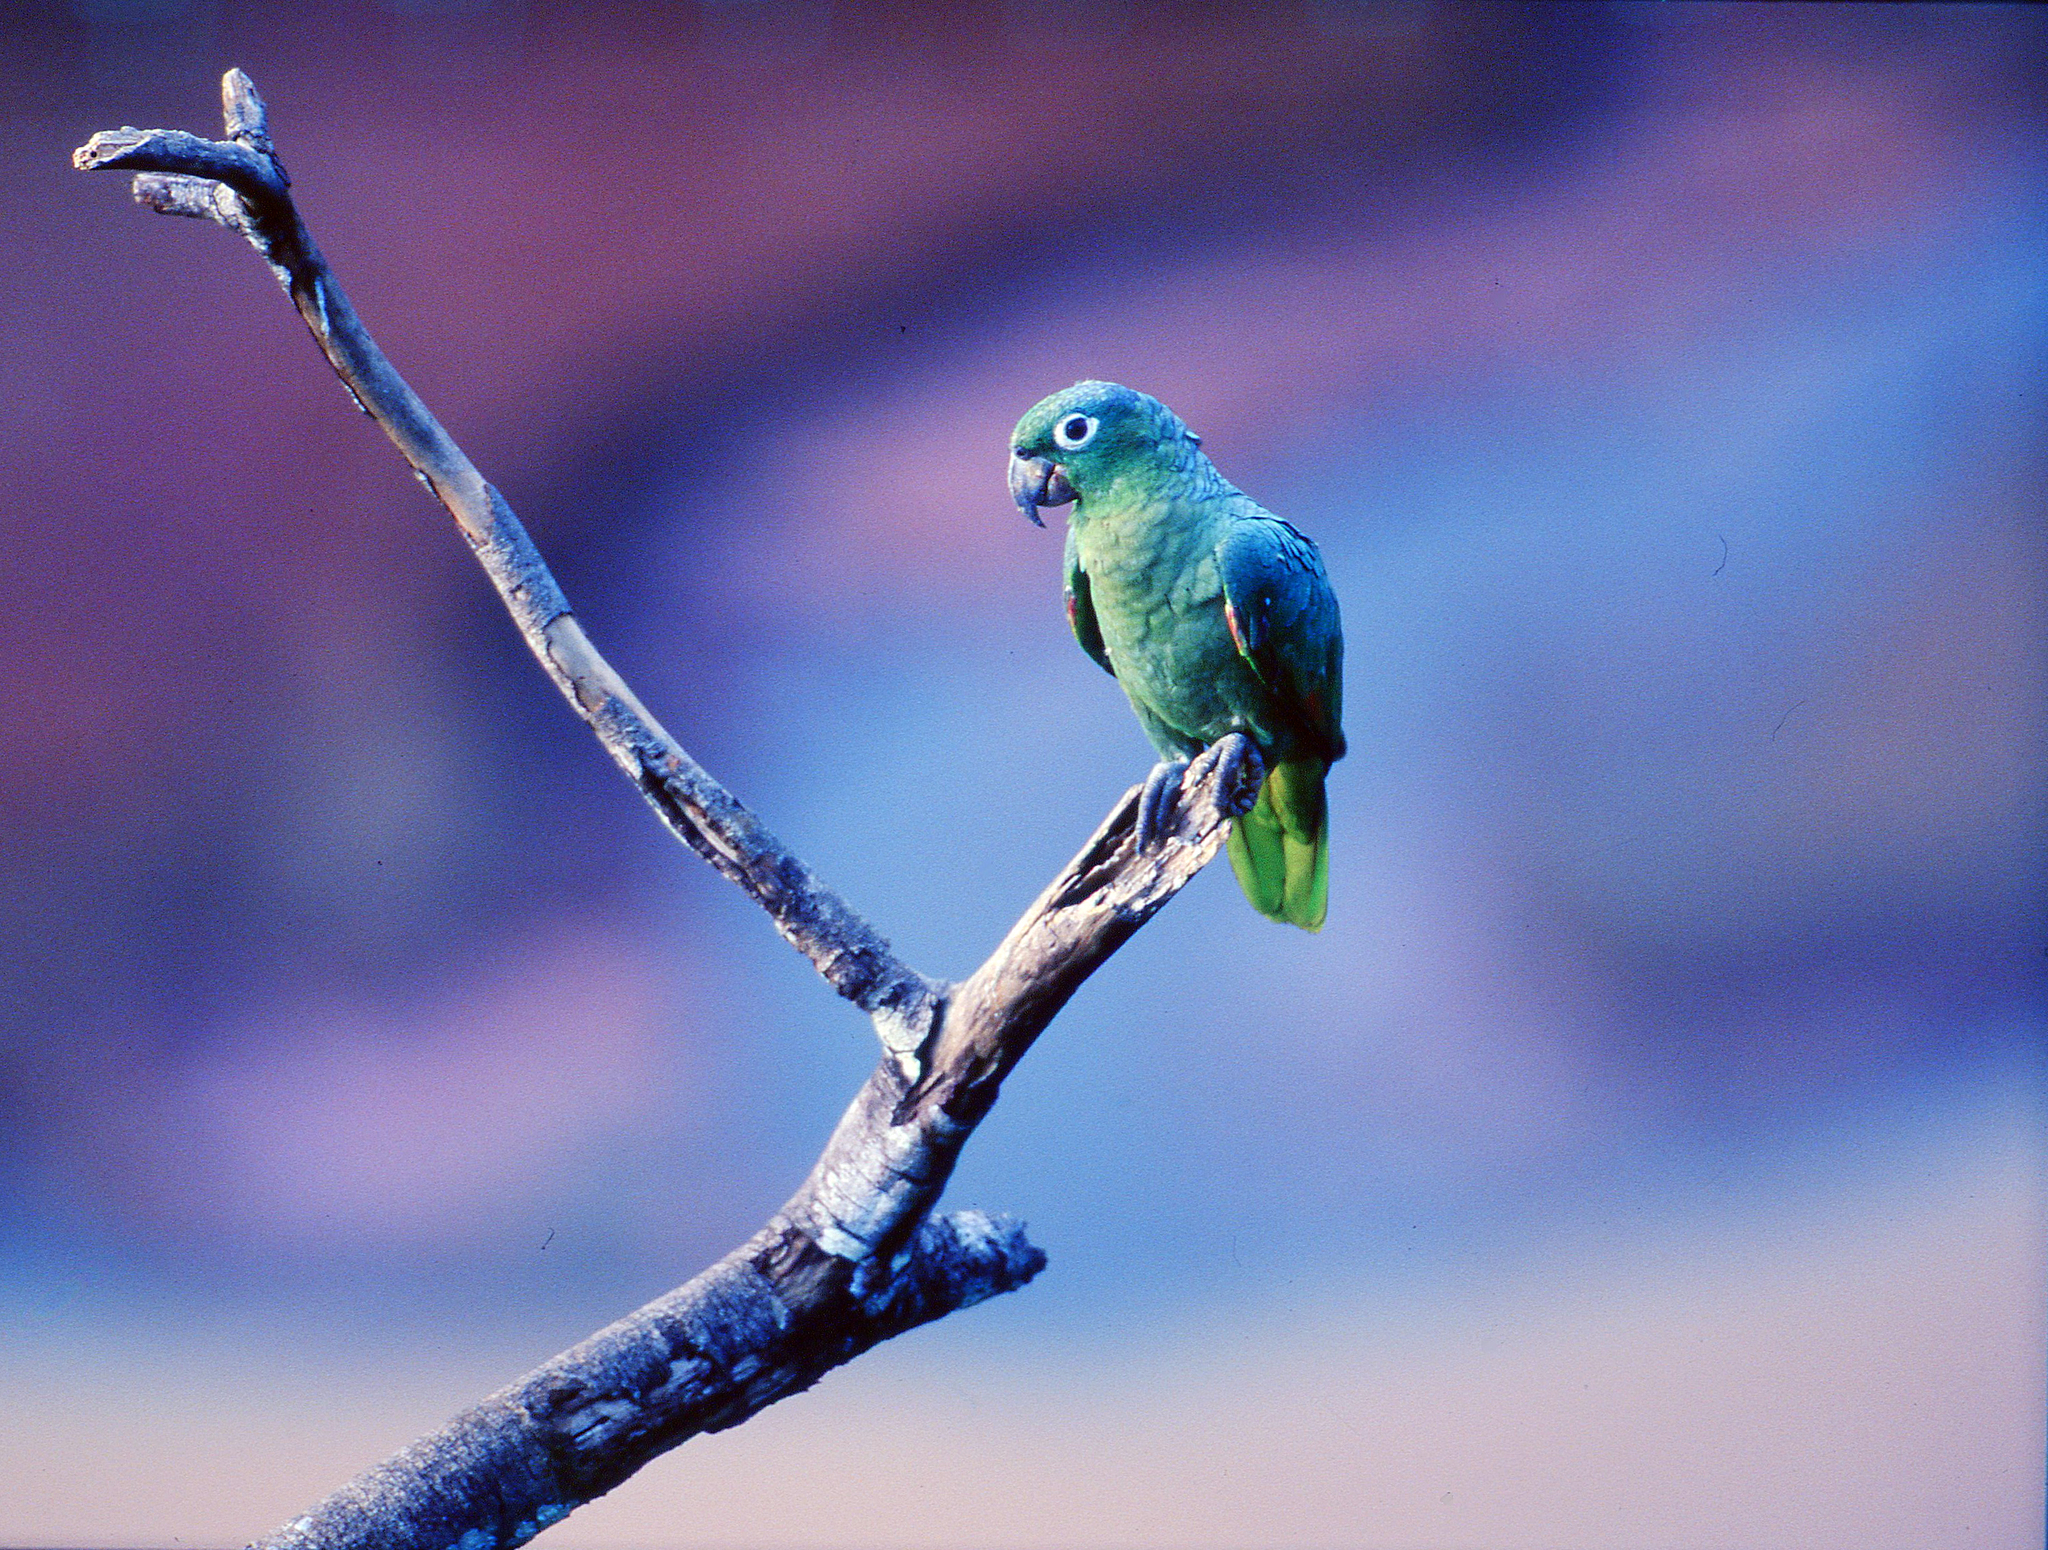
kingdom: Animalia
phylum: Chordata
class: Aves
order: Psittaciformes
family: Psittacidae
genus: Amazona
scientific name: Amazona farinosa
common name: Mealy parrot
